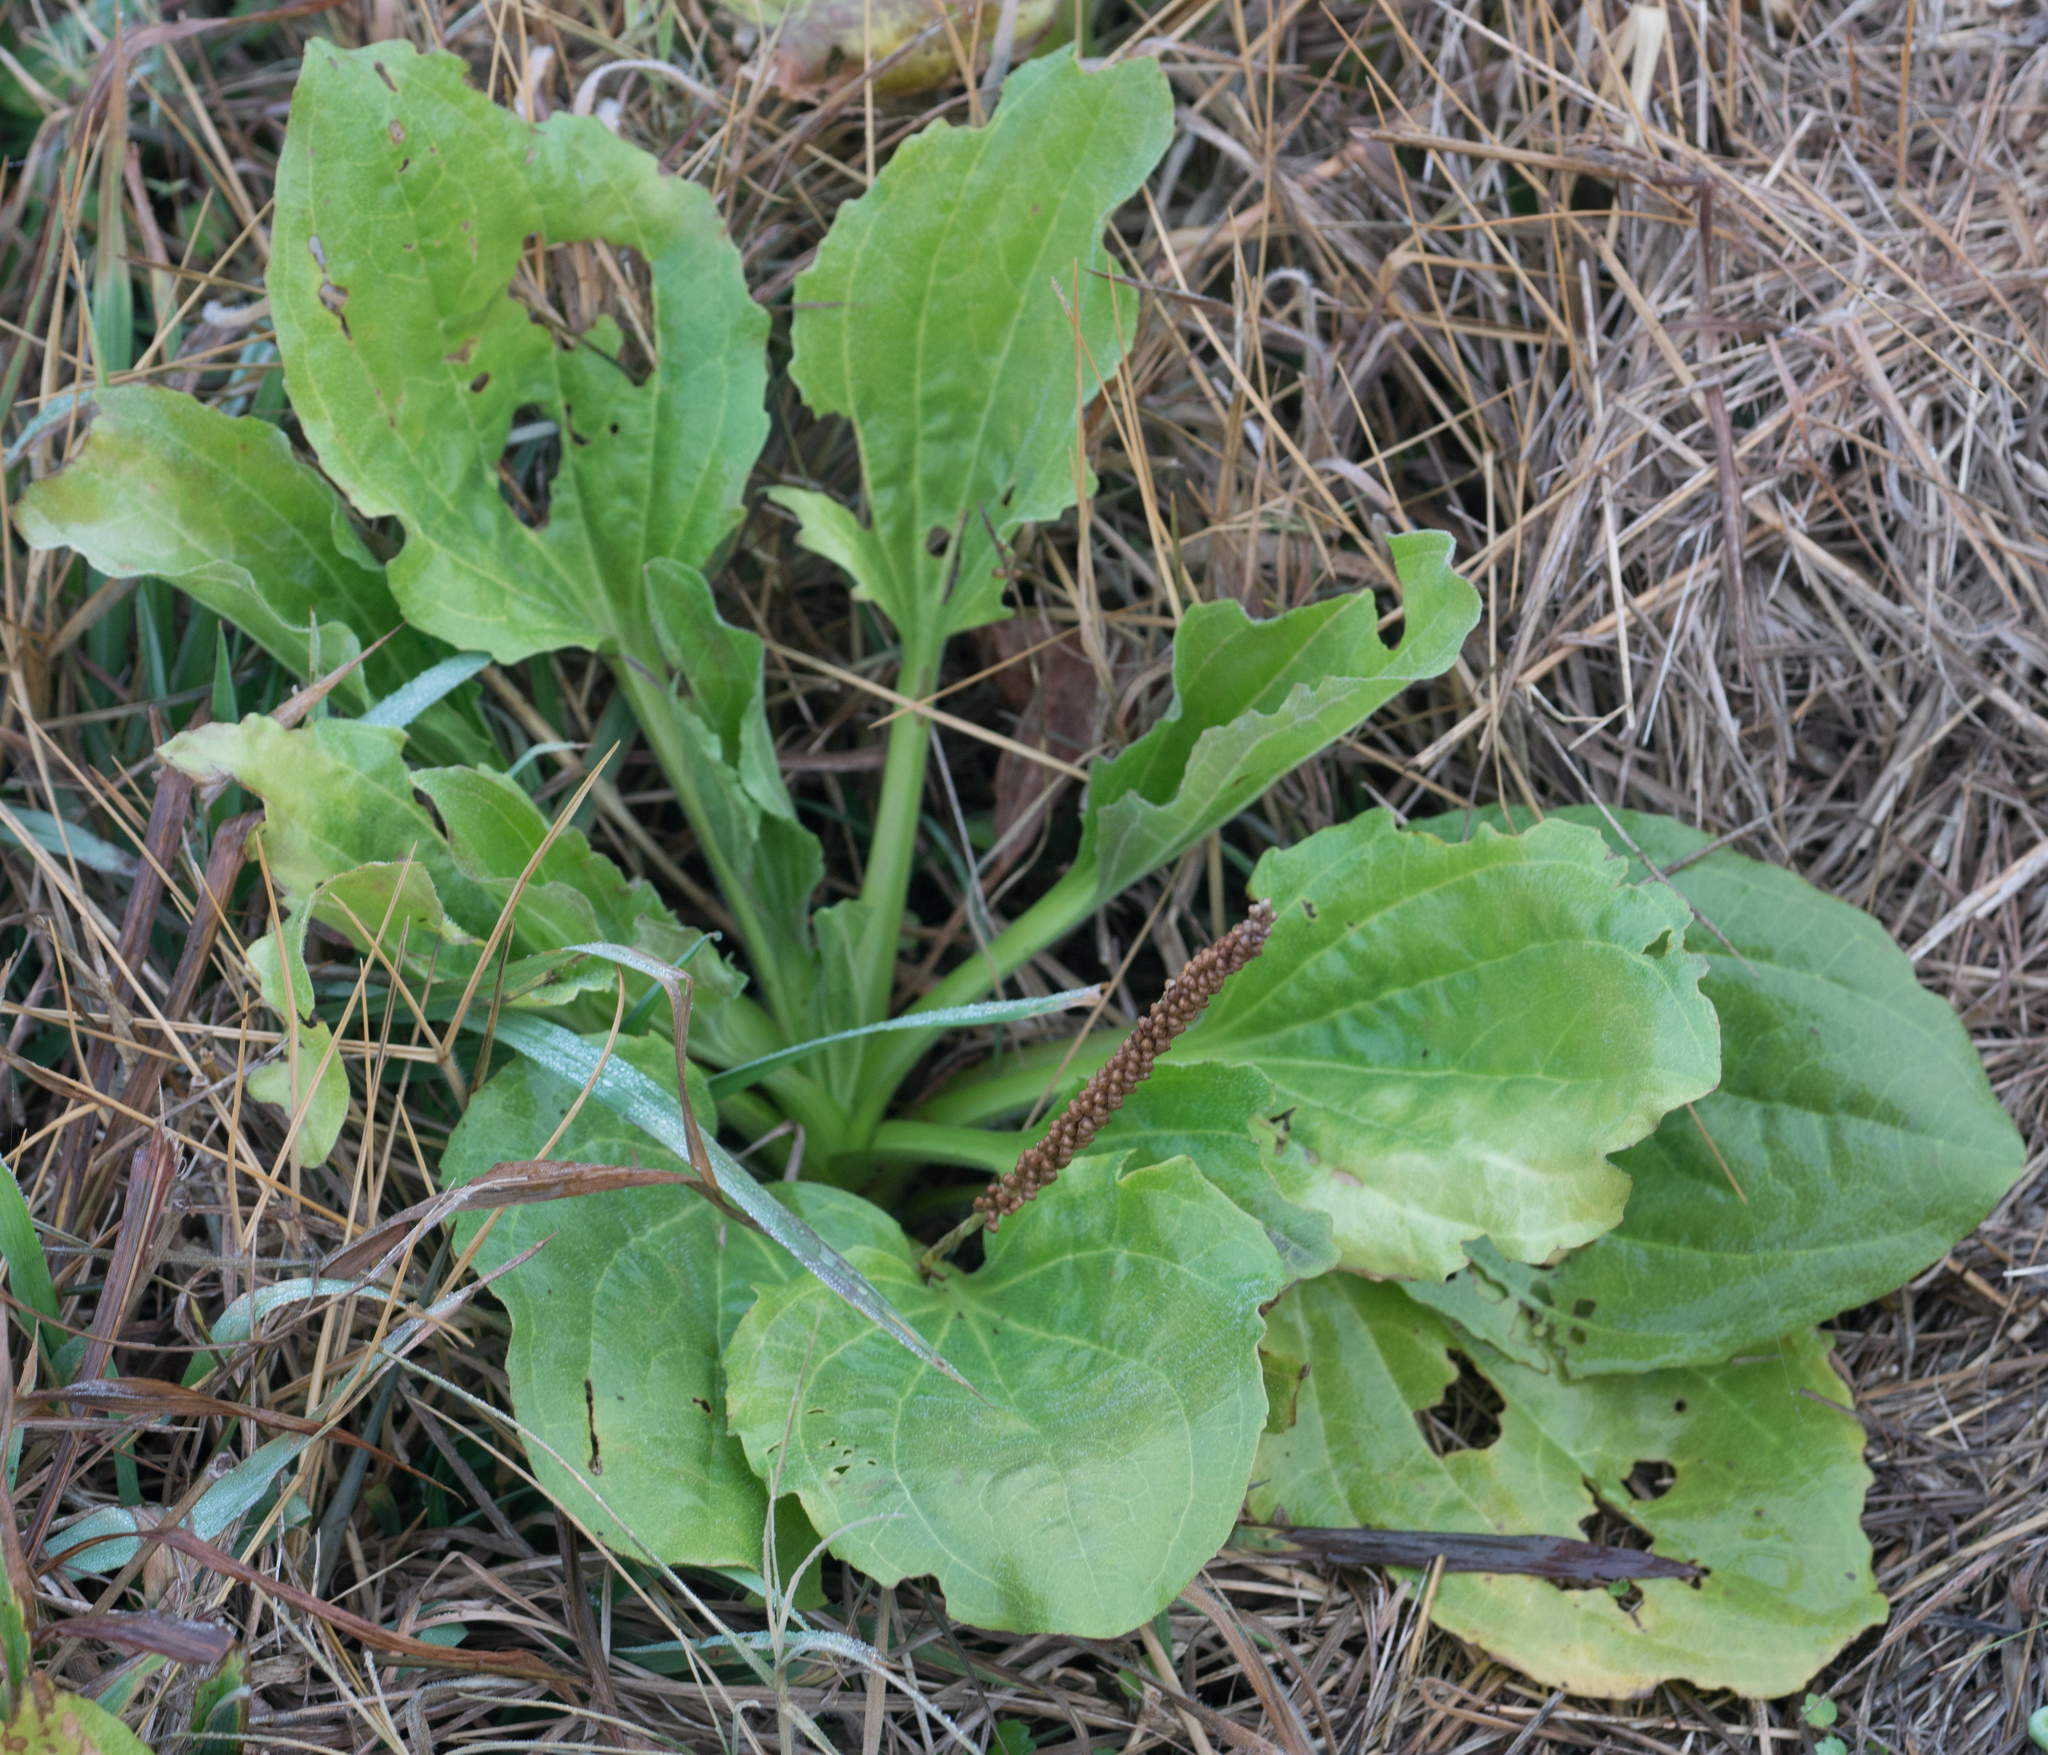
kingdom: Plantae
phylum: Tracheophyta
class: Magnoliopsida
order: Lamiales
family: Plantaginaceae
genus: Plantago
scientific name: Plantago major
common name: Common plantain
